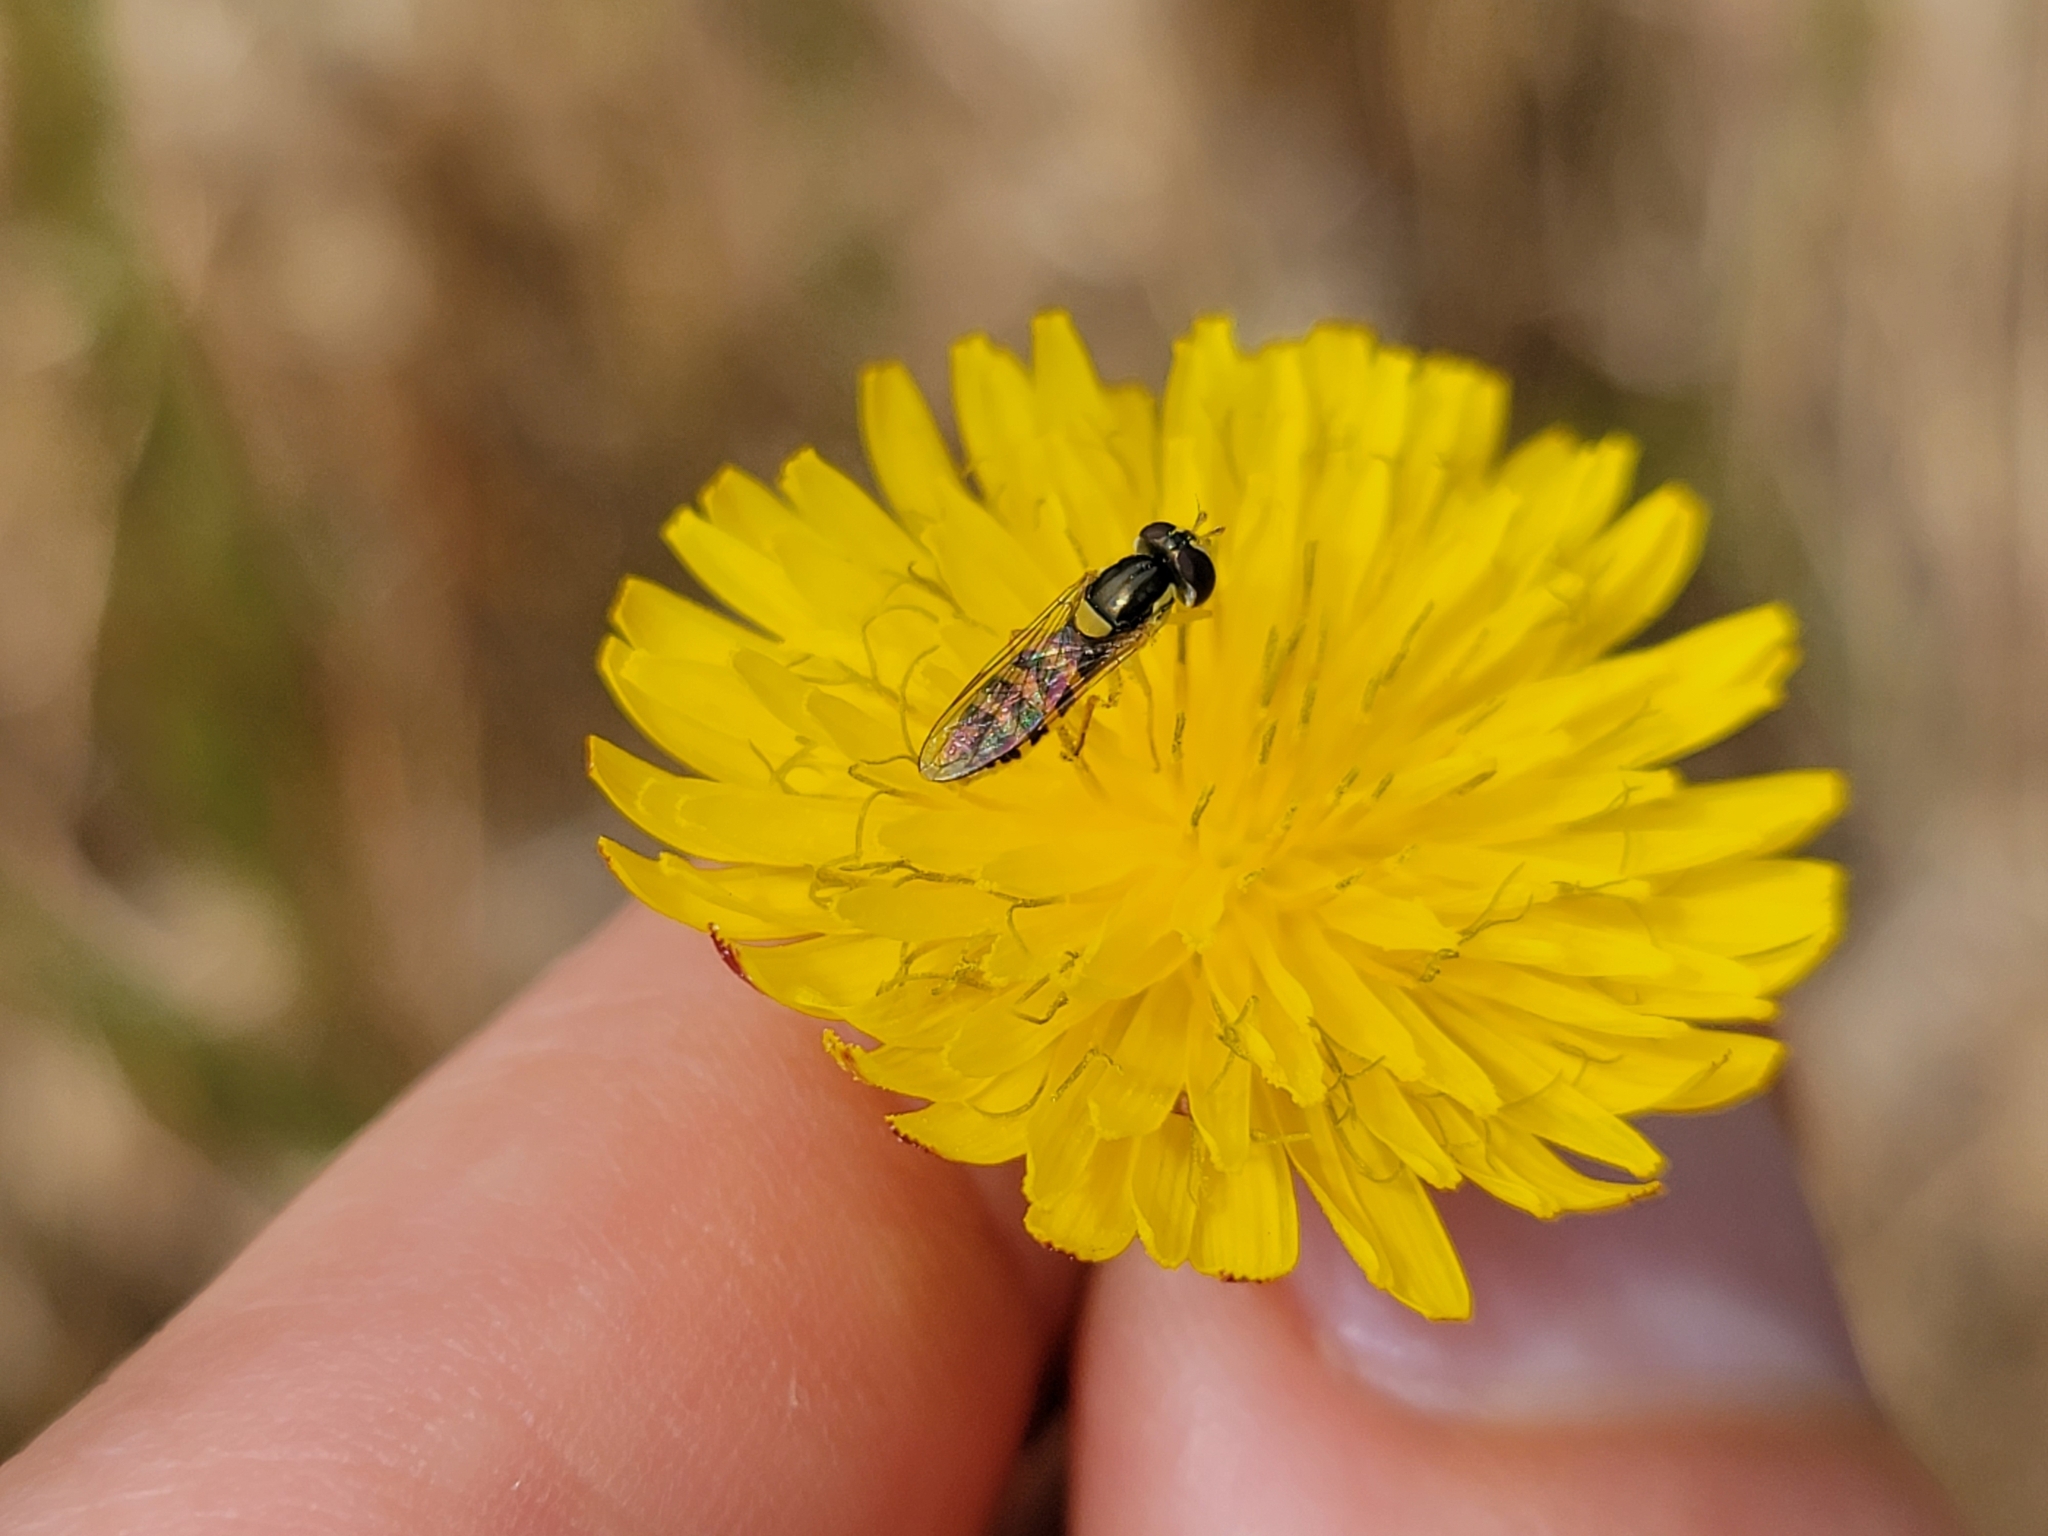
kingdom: Animalia
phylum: Arthropoda
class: Insecta
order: Diptera
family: Syrphidae
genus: Sphaerophoria
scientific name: Sphaerophoria contigua
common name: Tufted globetail
